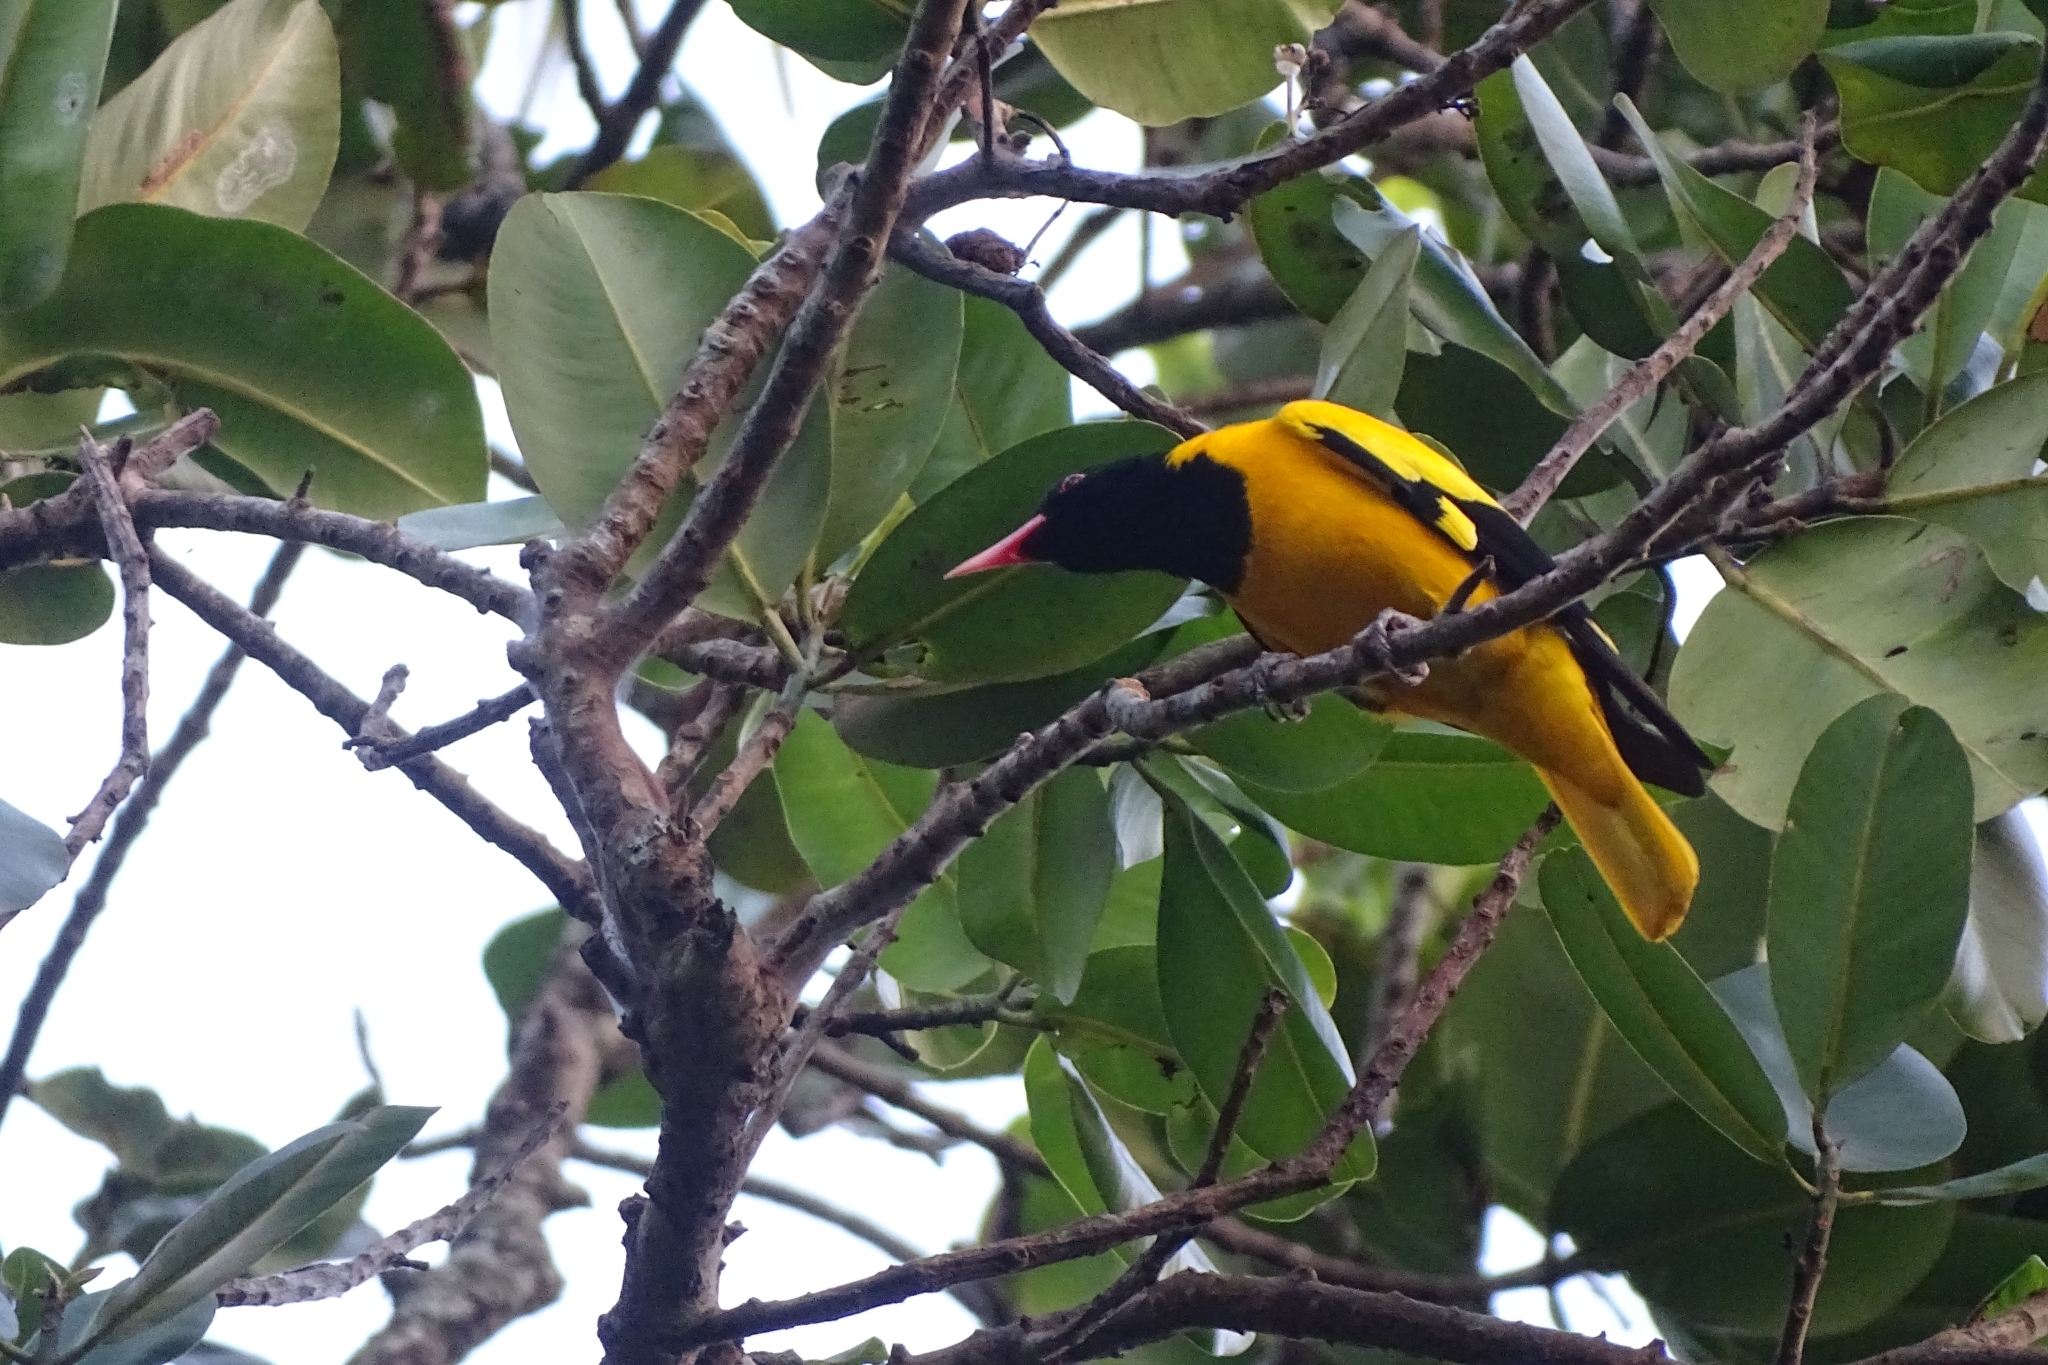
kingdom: Animalia
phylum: Chordata
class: Aves
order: Passeriformes
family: Oriolidae
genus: Oriolus
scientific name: Oriolus xanthornus
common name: Black-hooded oriole
